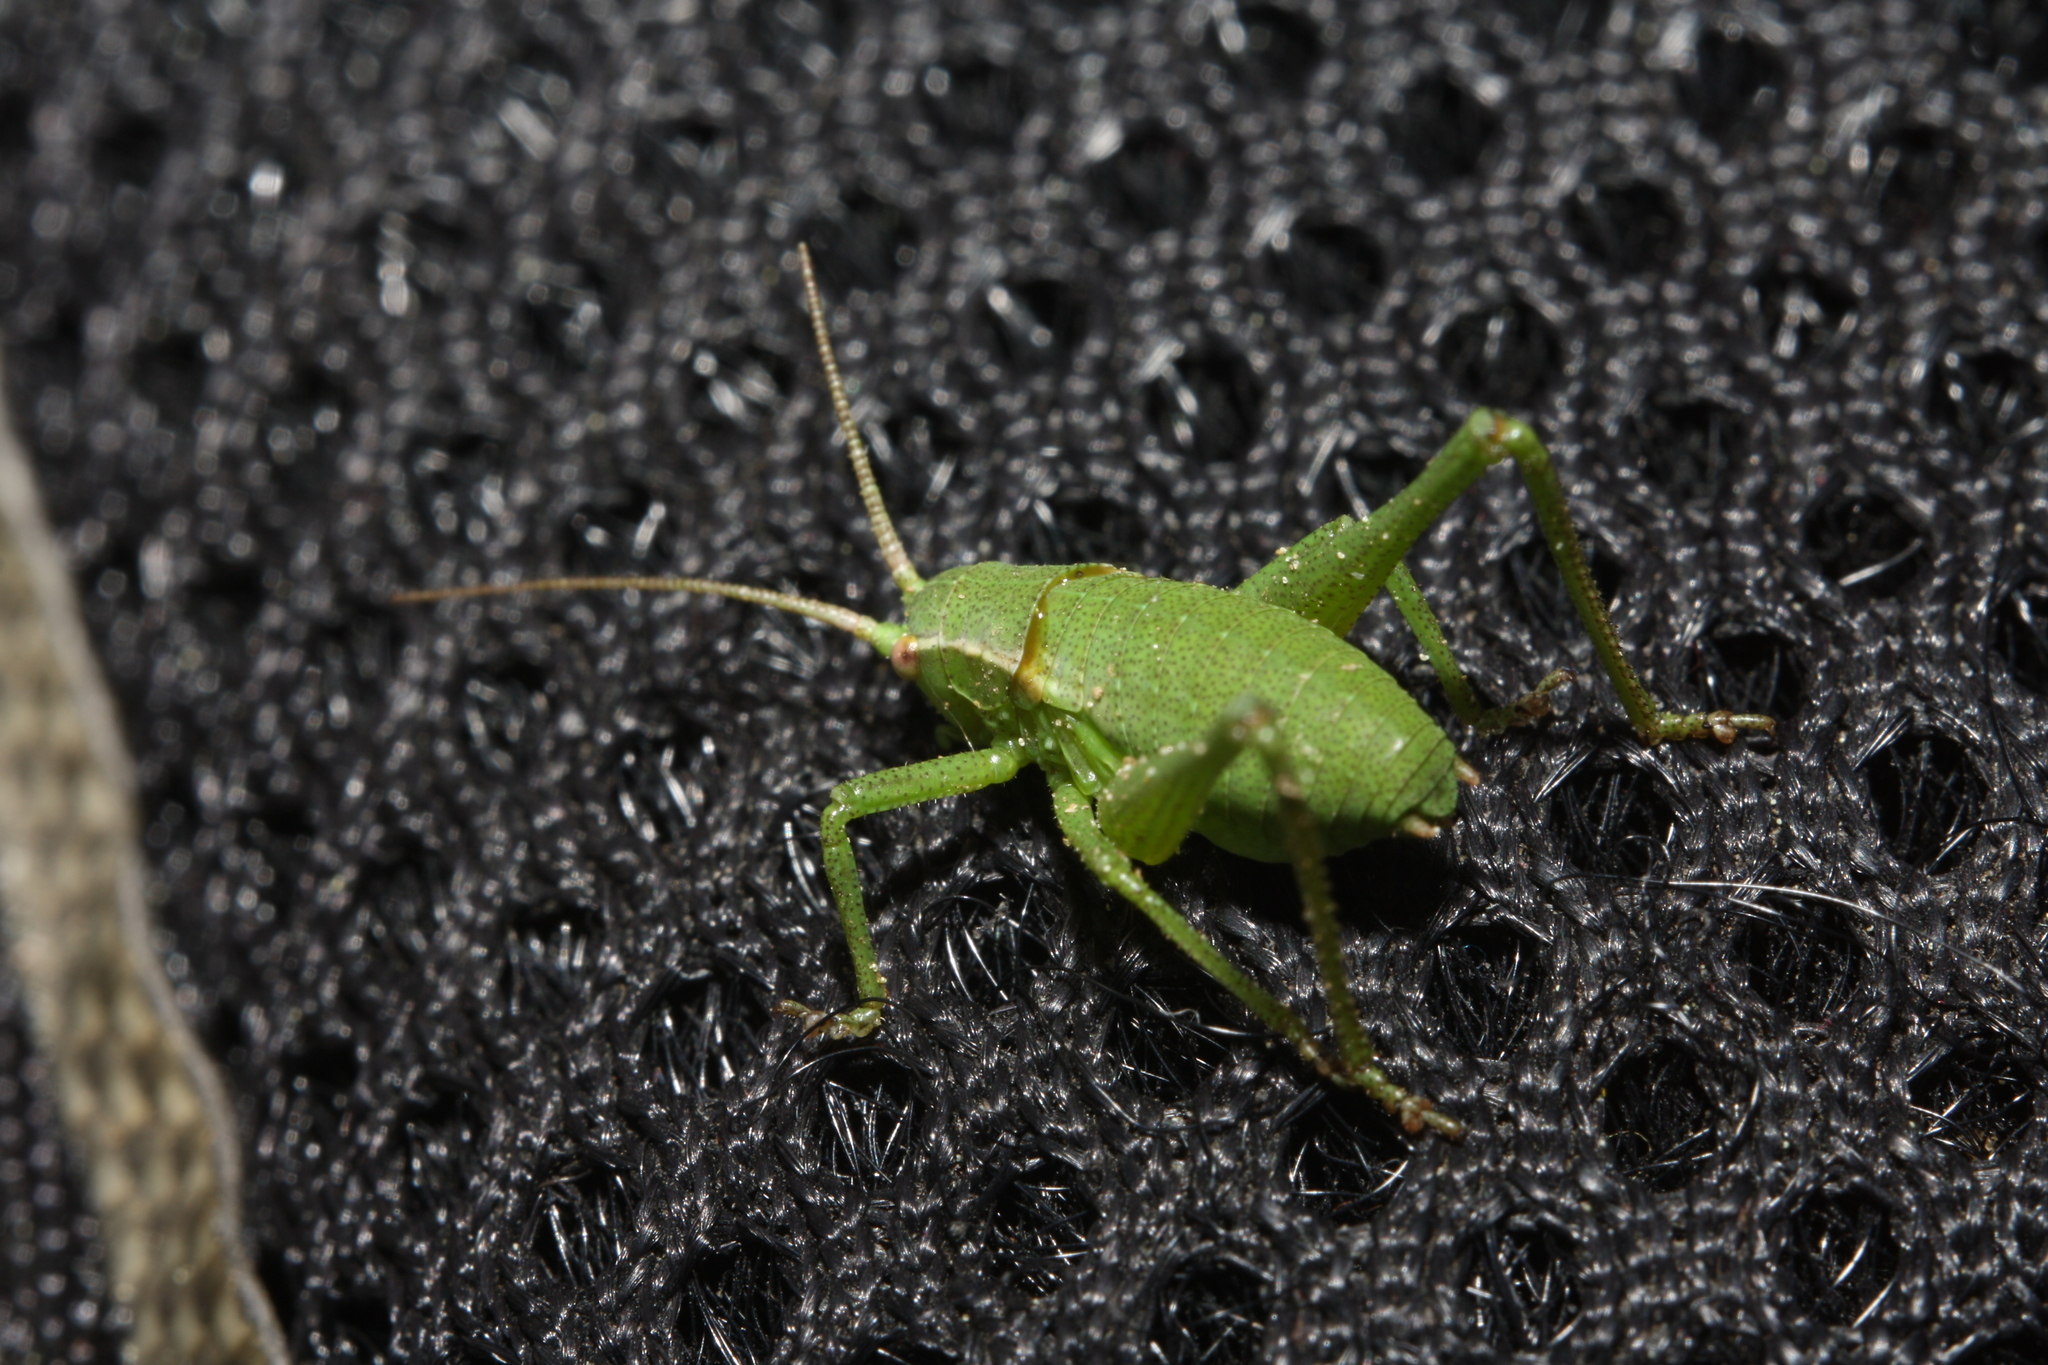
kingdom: Animalia
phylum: Arthropoda
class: Insecta
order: Orthoptera
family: Tettigoniidae
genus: Isophya
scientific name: Isophya camptoxypha
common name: Curve-tailed plump bush-cricket
